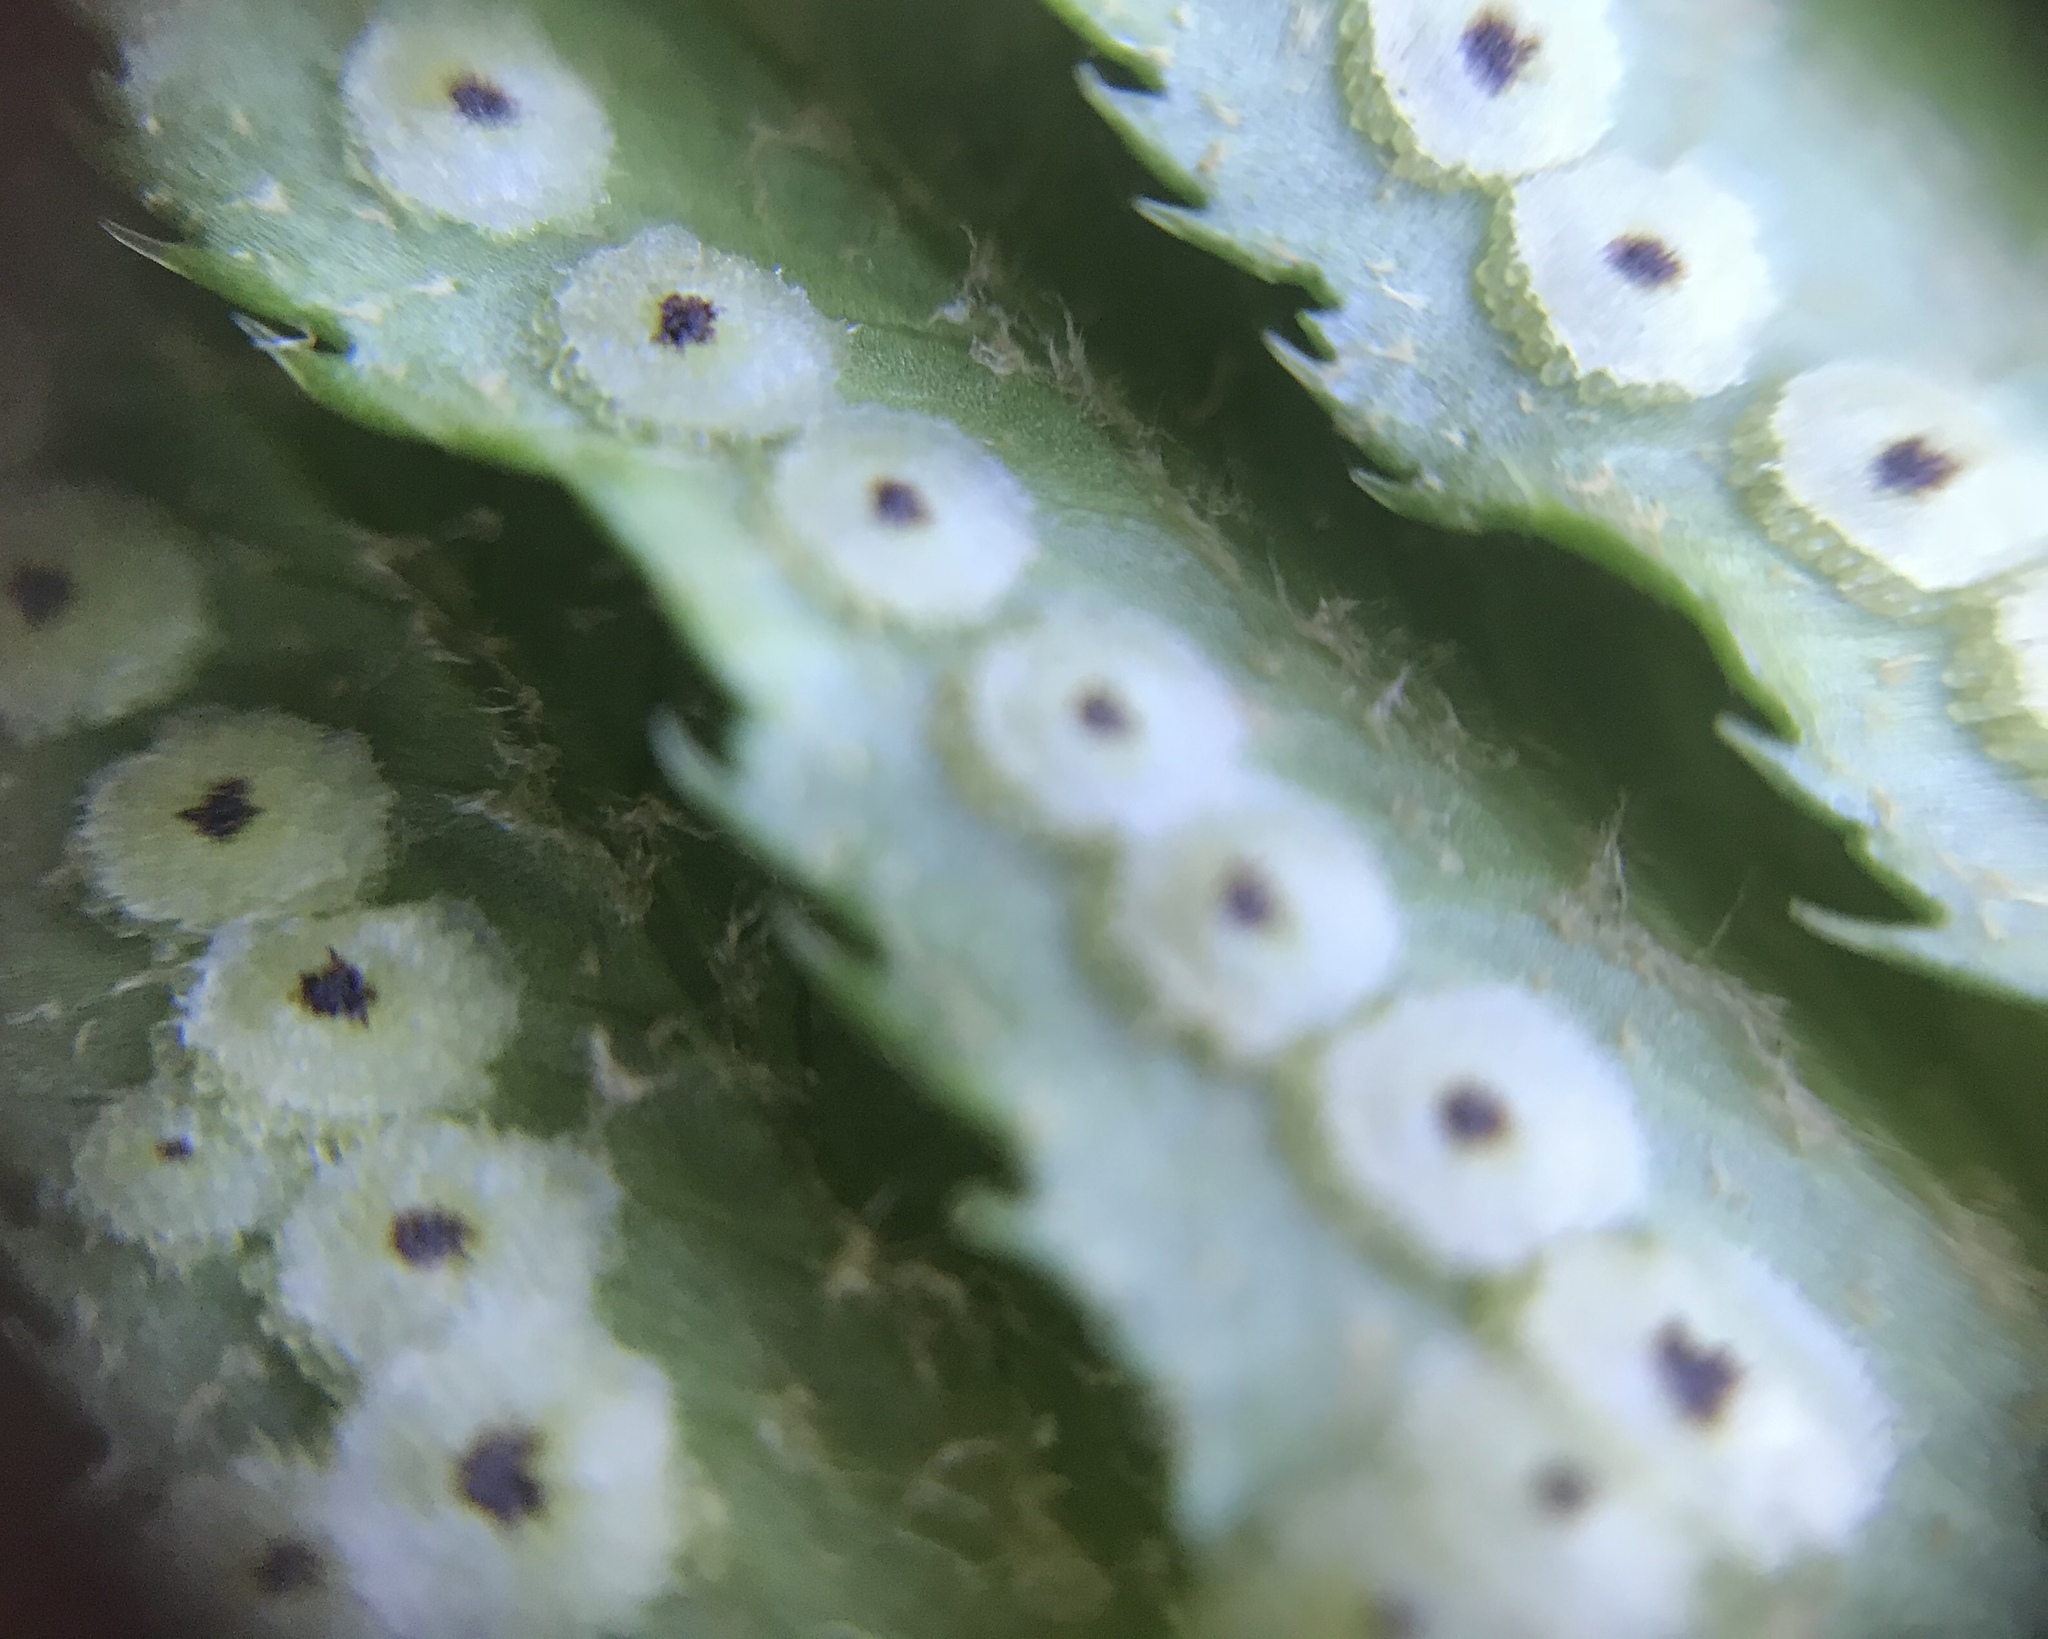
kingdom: Plantae
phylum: Tracheophyta
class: Polypodiopsida
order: Polypodiales
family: Dryopteridaceae
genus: Polystichum
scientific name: Polystichum munitum
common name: Western sword-fern
